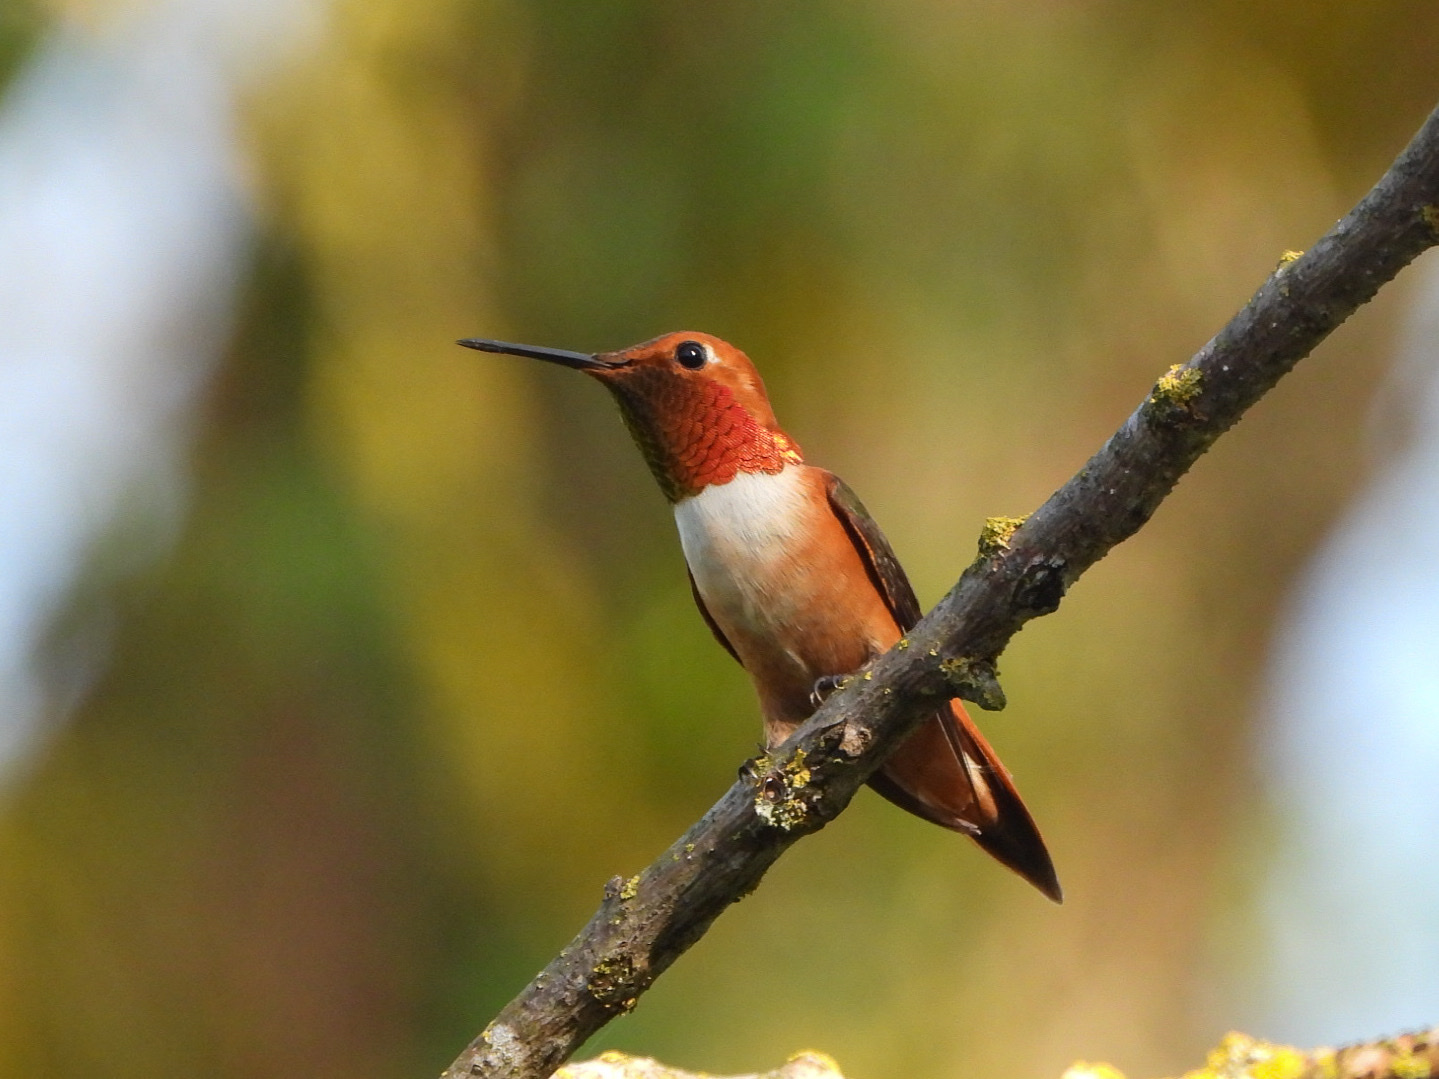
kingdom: Animalia
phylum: Chordata
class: Aves
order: Apodiformes
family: Trochilidae
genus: Selasphorus
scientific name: Selasphorus rufus
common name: Rufous hummingbird
